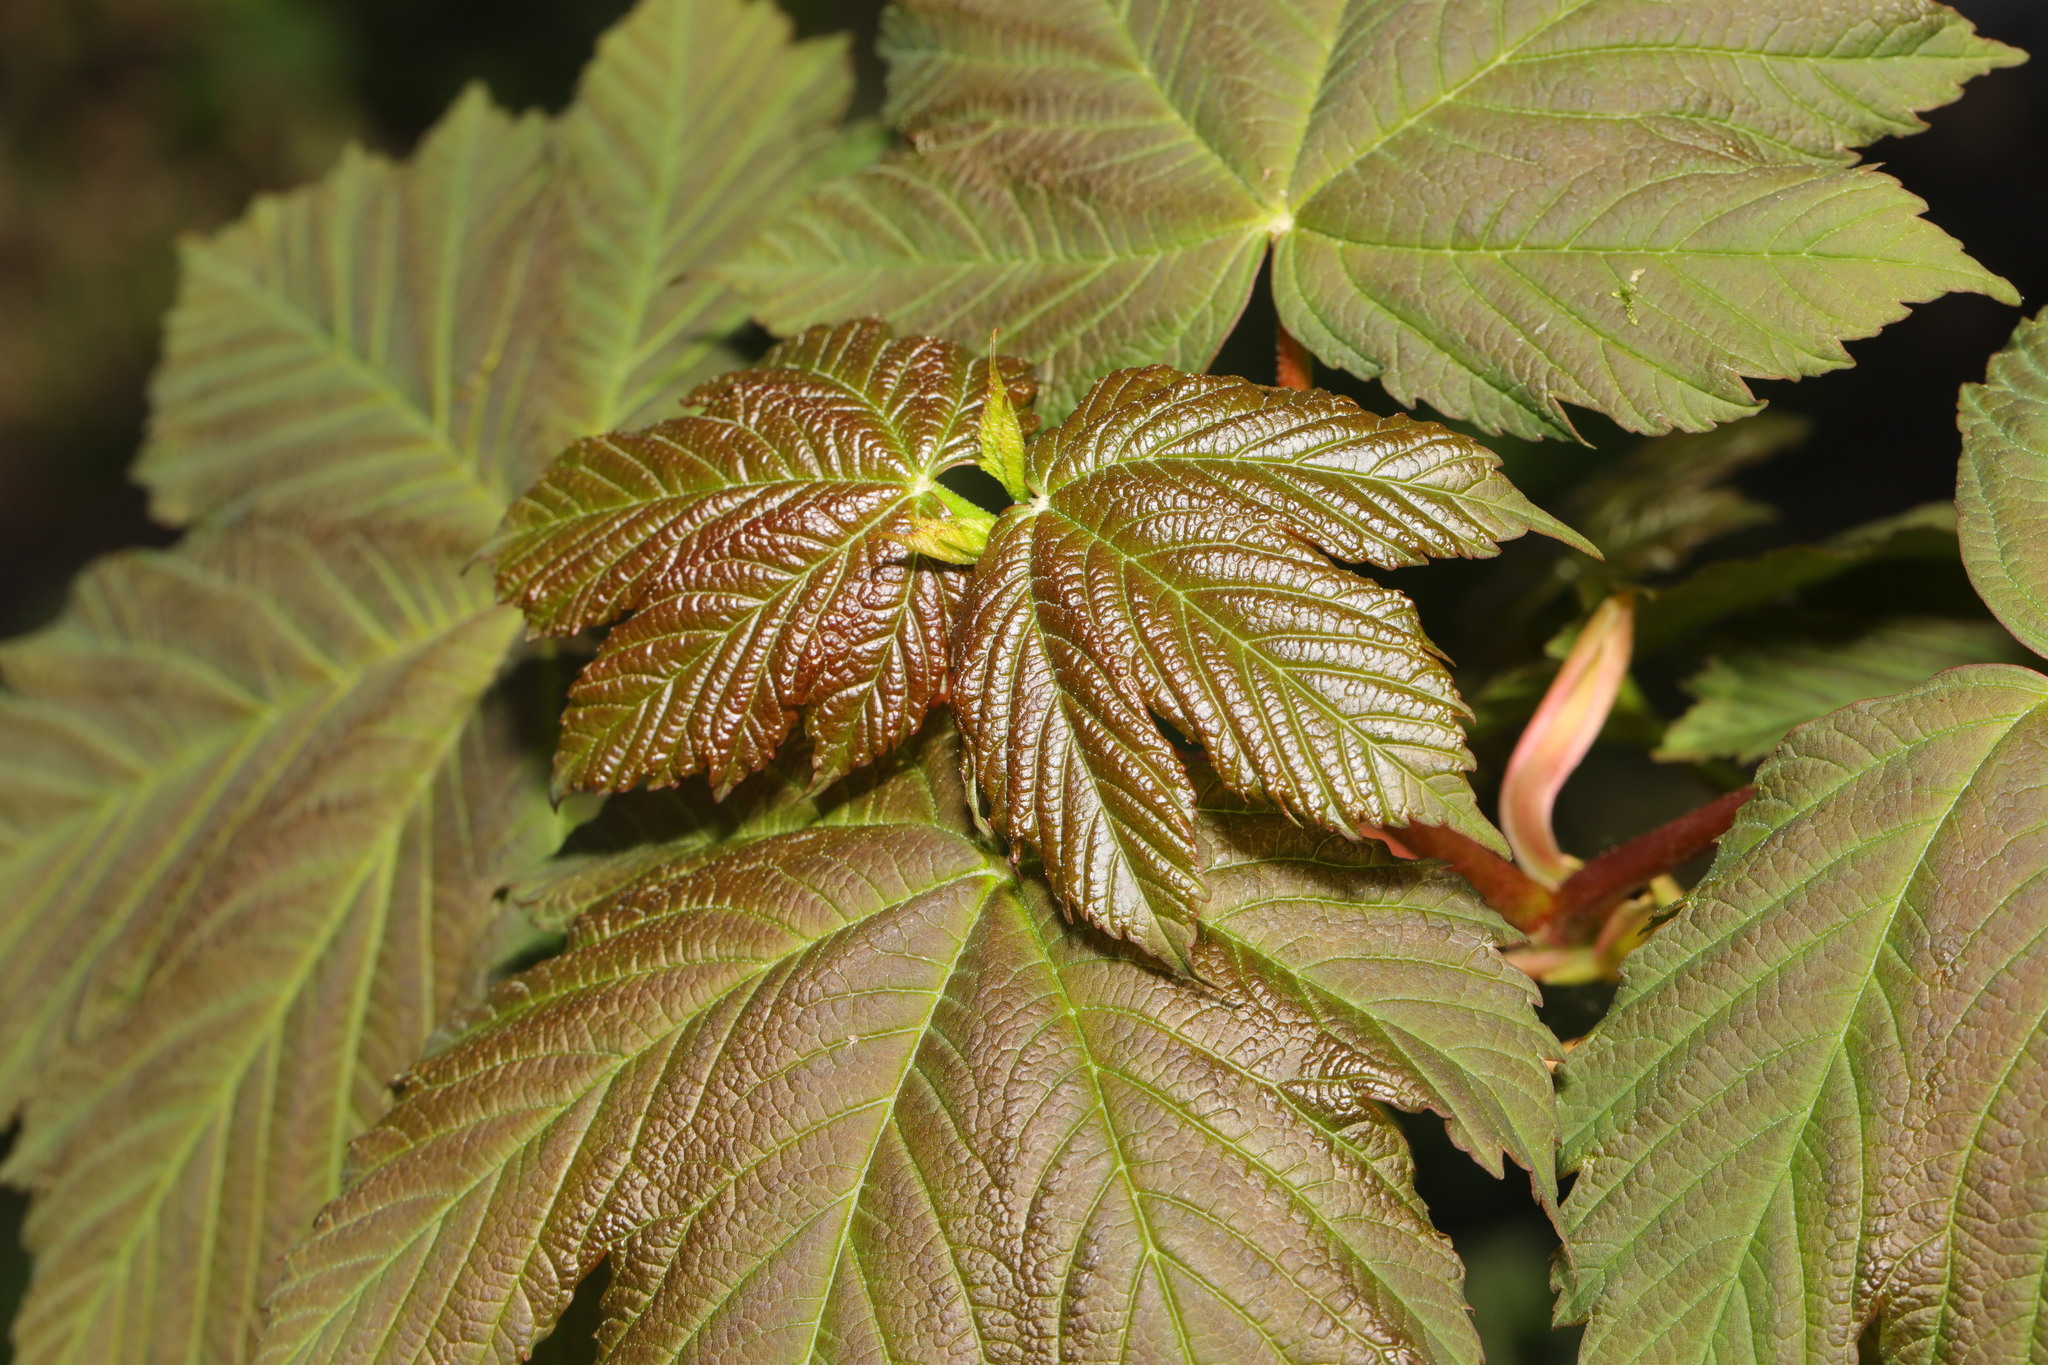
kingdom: Plantae
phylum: Tracheophyta
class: Magnoliopsida
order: Sapindales
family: Sapindaceae
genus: Acer
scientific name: Acer pseudoplatanus
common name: Sycamore
